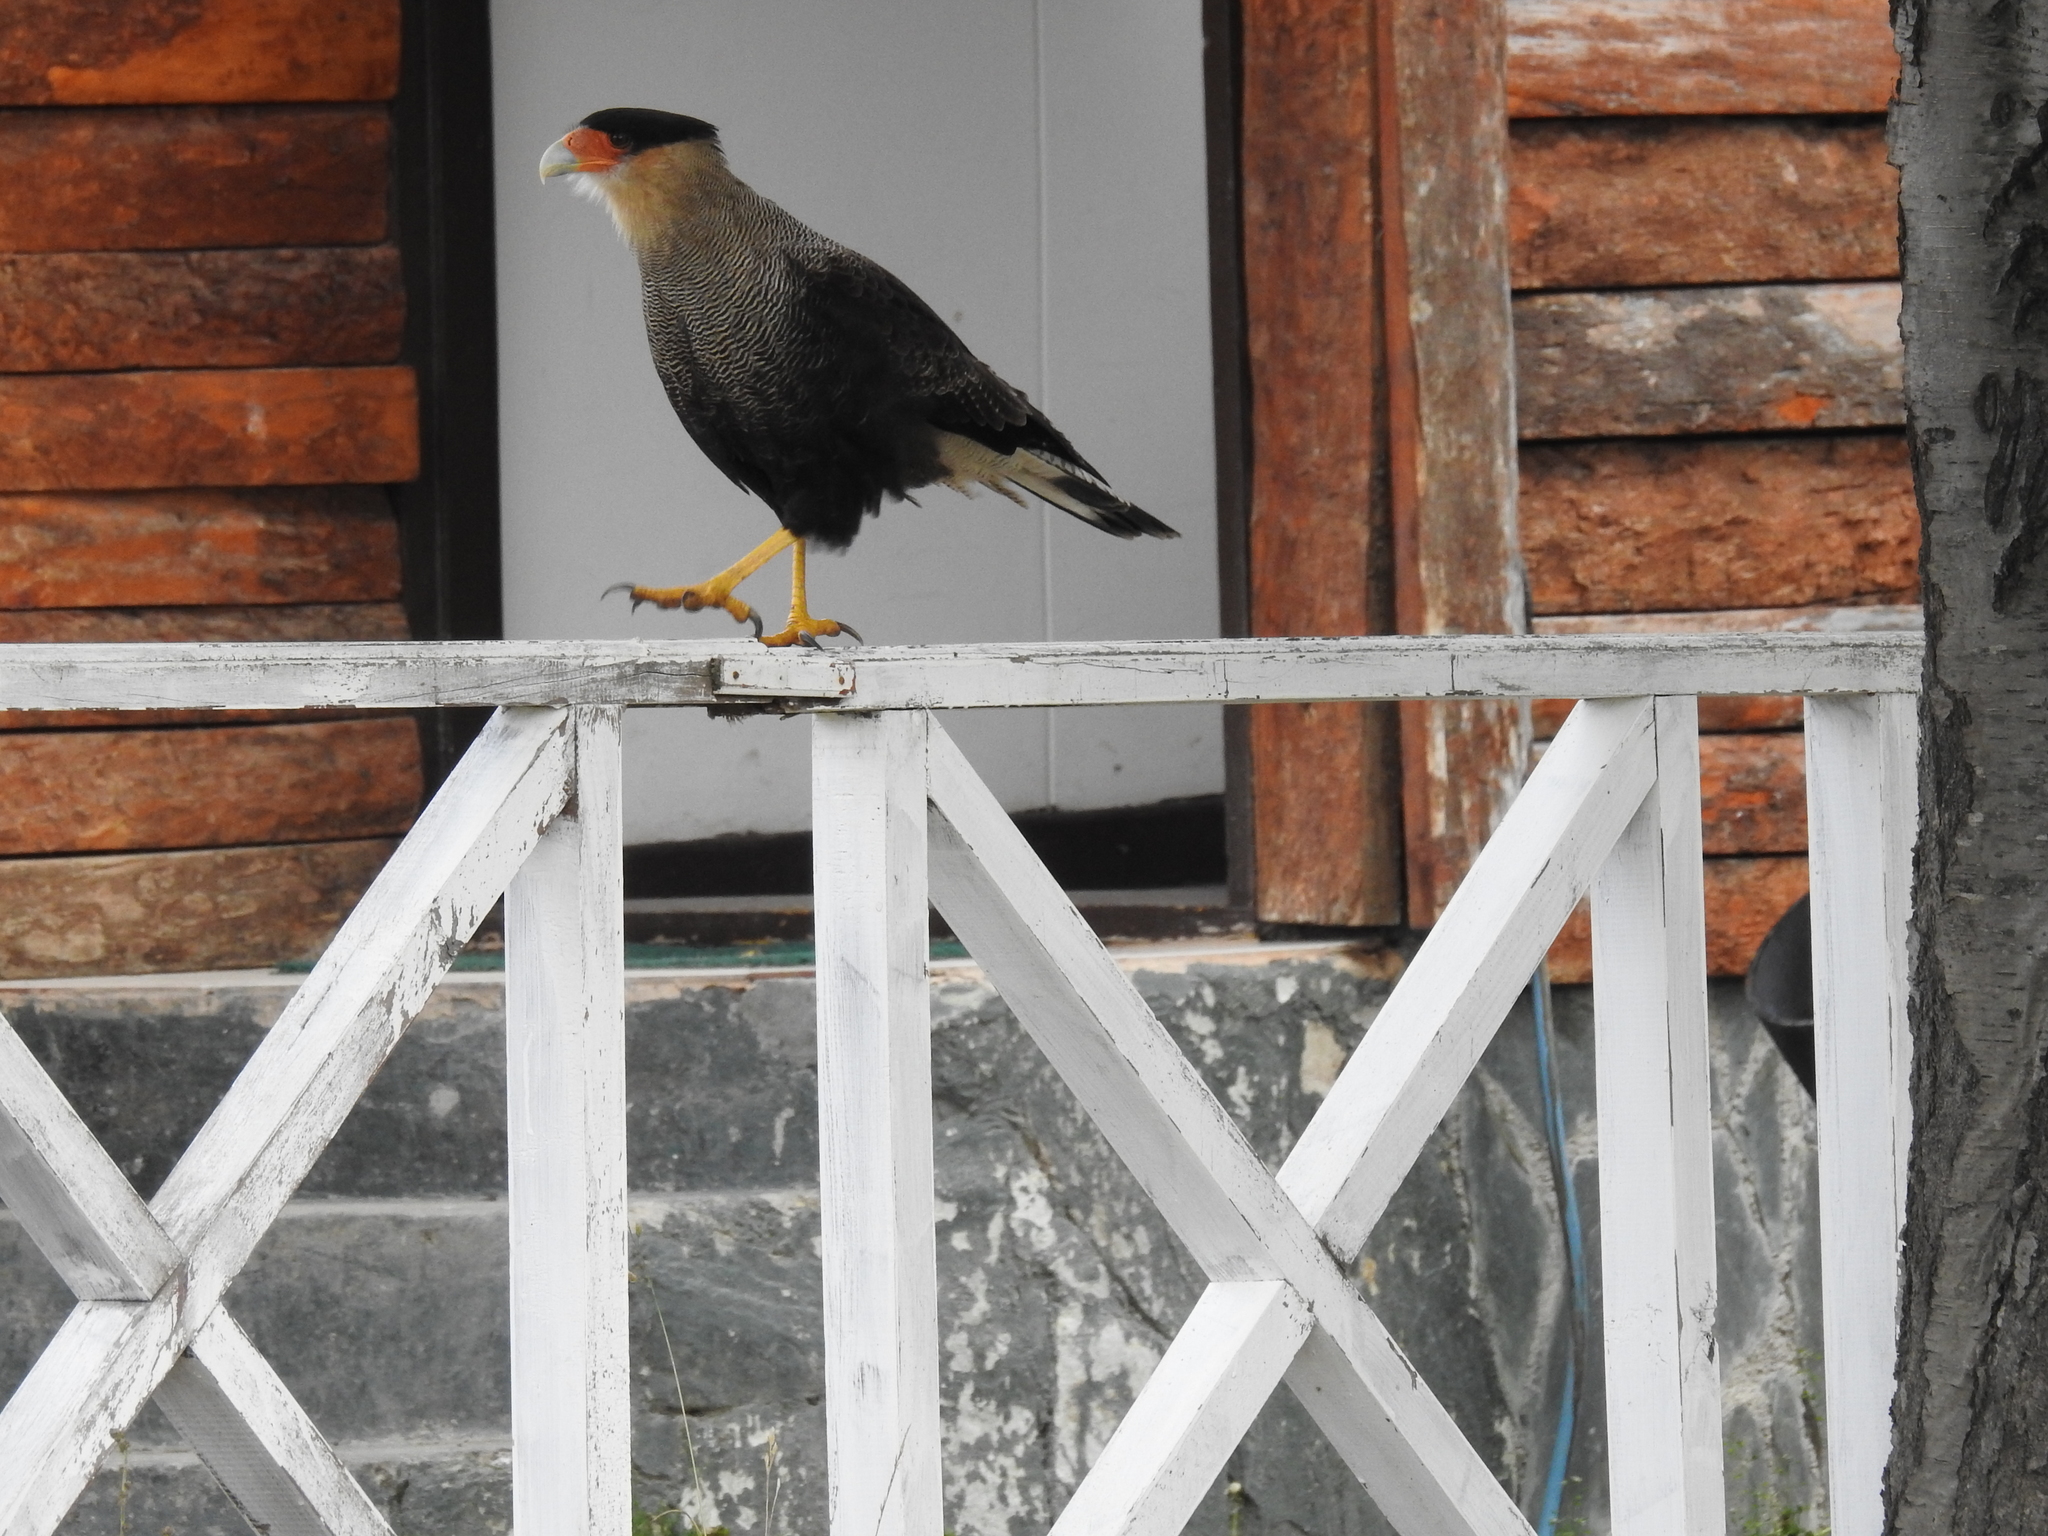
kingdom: Animalia
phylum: Chordata
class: Aves
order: Falconiformes
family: Falconidae
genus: Caracara
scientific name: Caracara plancus
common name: Southern caracara
